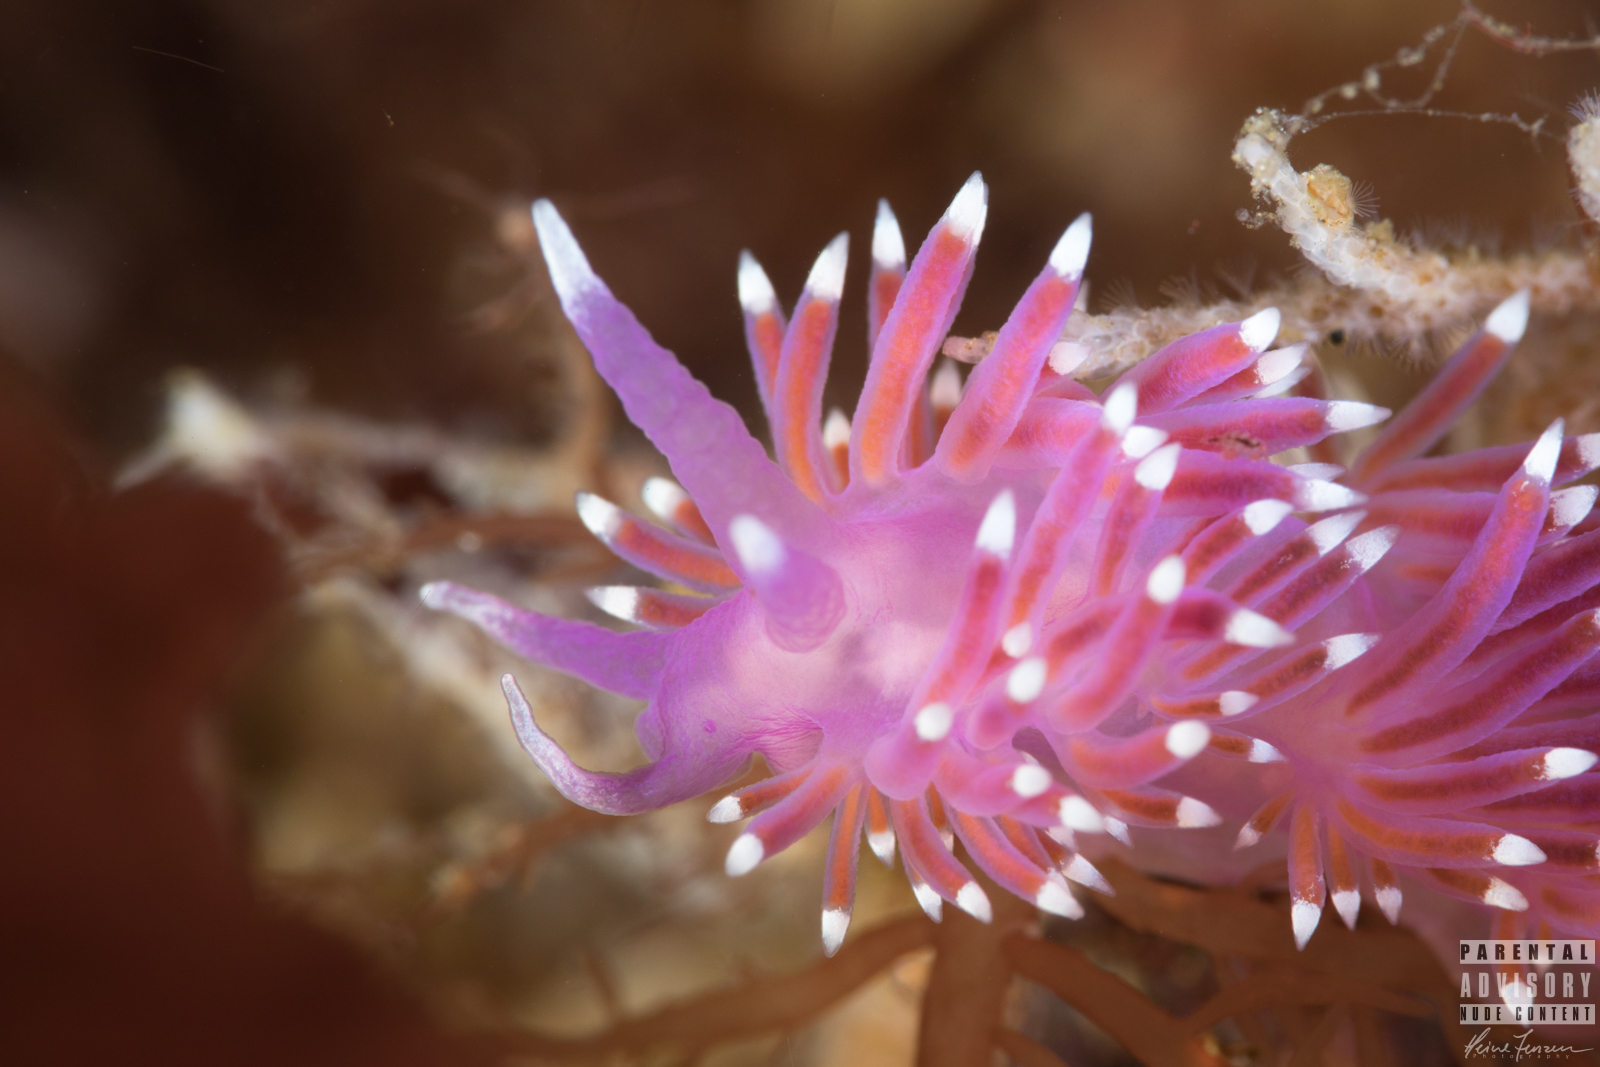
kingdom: Animalia
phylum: Mollusca
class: Gastropoda
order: Nudibranchia
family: Flabellinidae
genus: Edmundsella
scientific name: Edmundsella pedata
